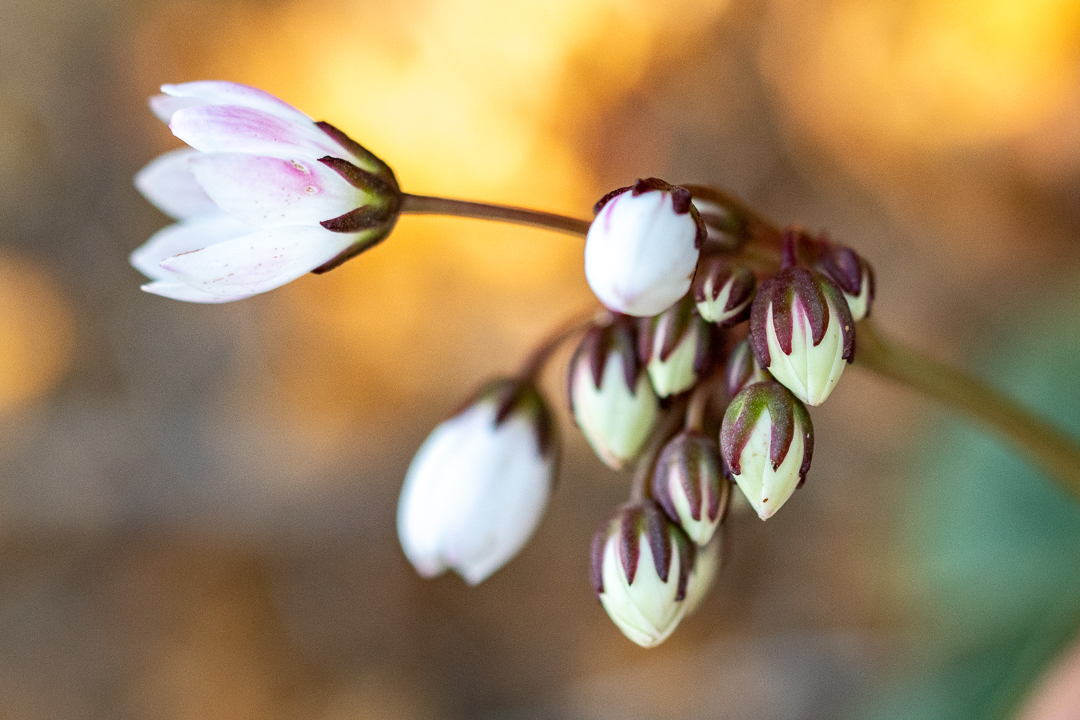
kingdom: Plantae
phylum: Tracheophyta
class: Magnoliopsida
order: Saxifragales
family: Crassulaceae
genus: Crassula
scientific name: Crassula capensis
